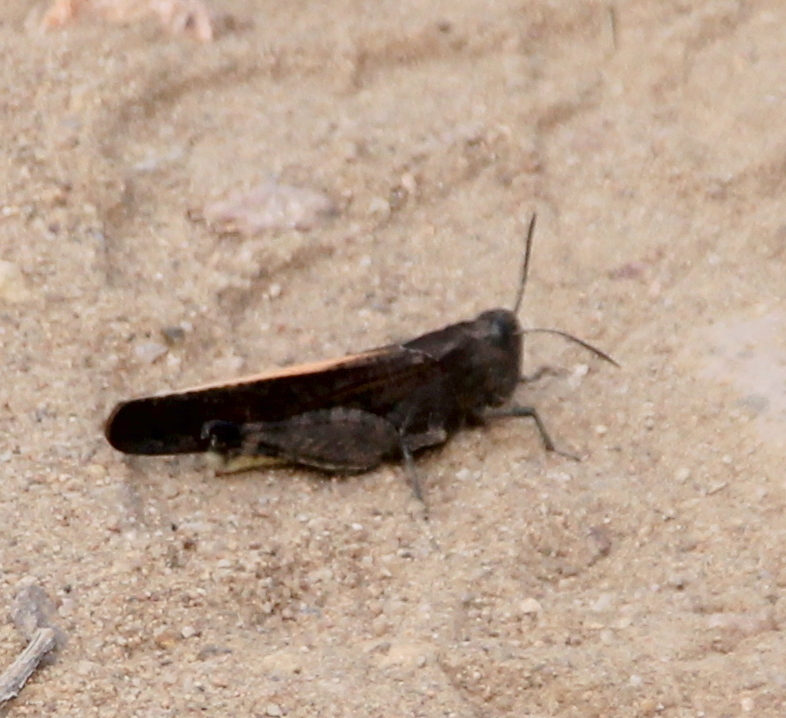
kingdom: Animalia
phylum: Arthropoda
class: Insecta
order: Orthoptera
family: Acrididae
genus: Arphia
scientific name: Arphia ramona
